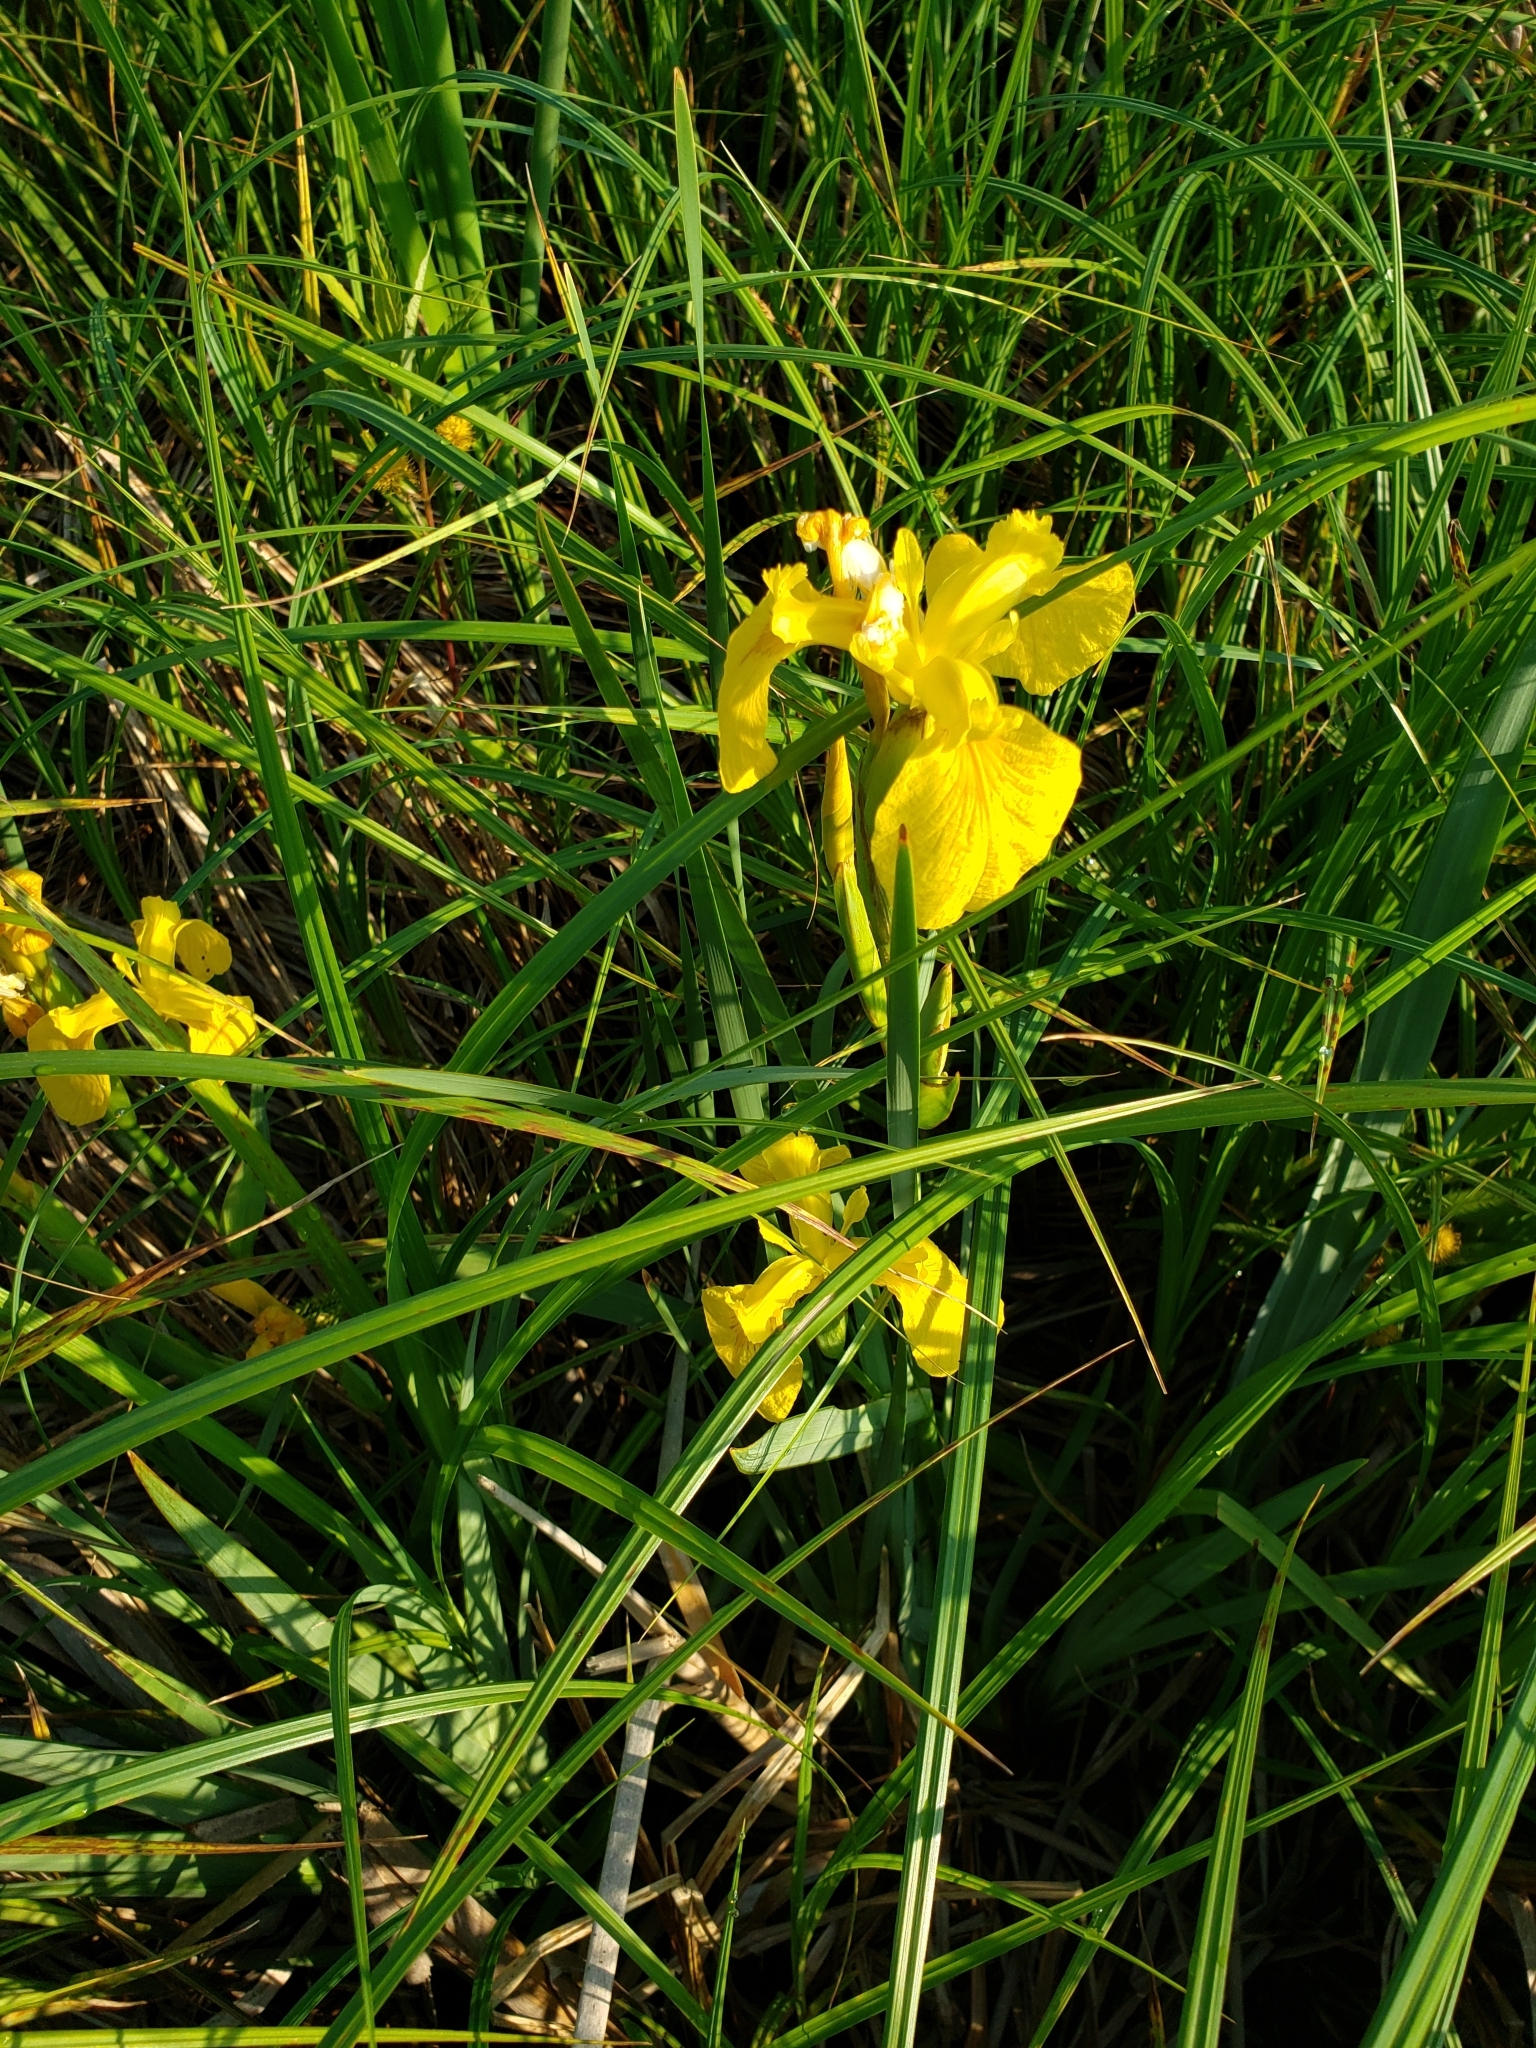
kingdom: Plantae
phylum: Tracheophyta
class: Liliopsida
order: Asparagales
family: Iridaceae
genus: Iris
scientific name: Iris pseudacorus
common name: Yellow flag
